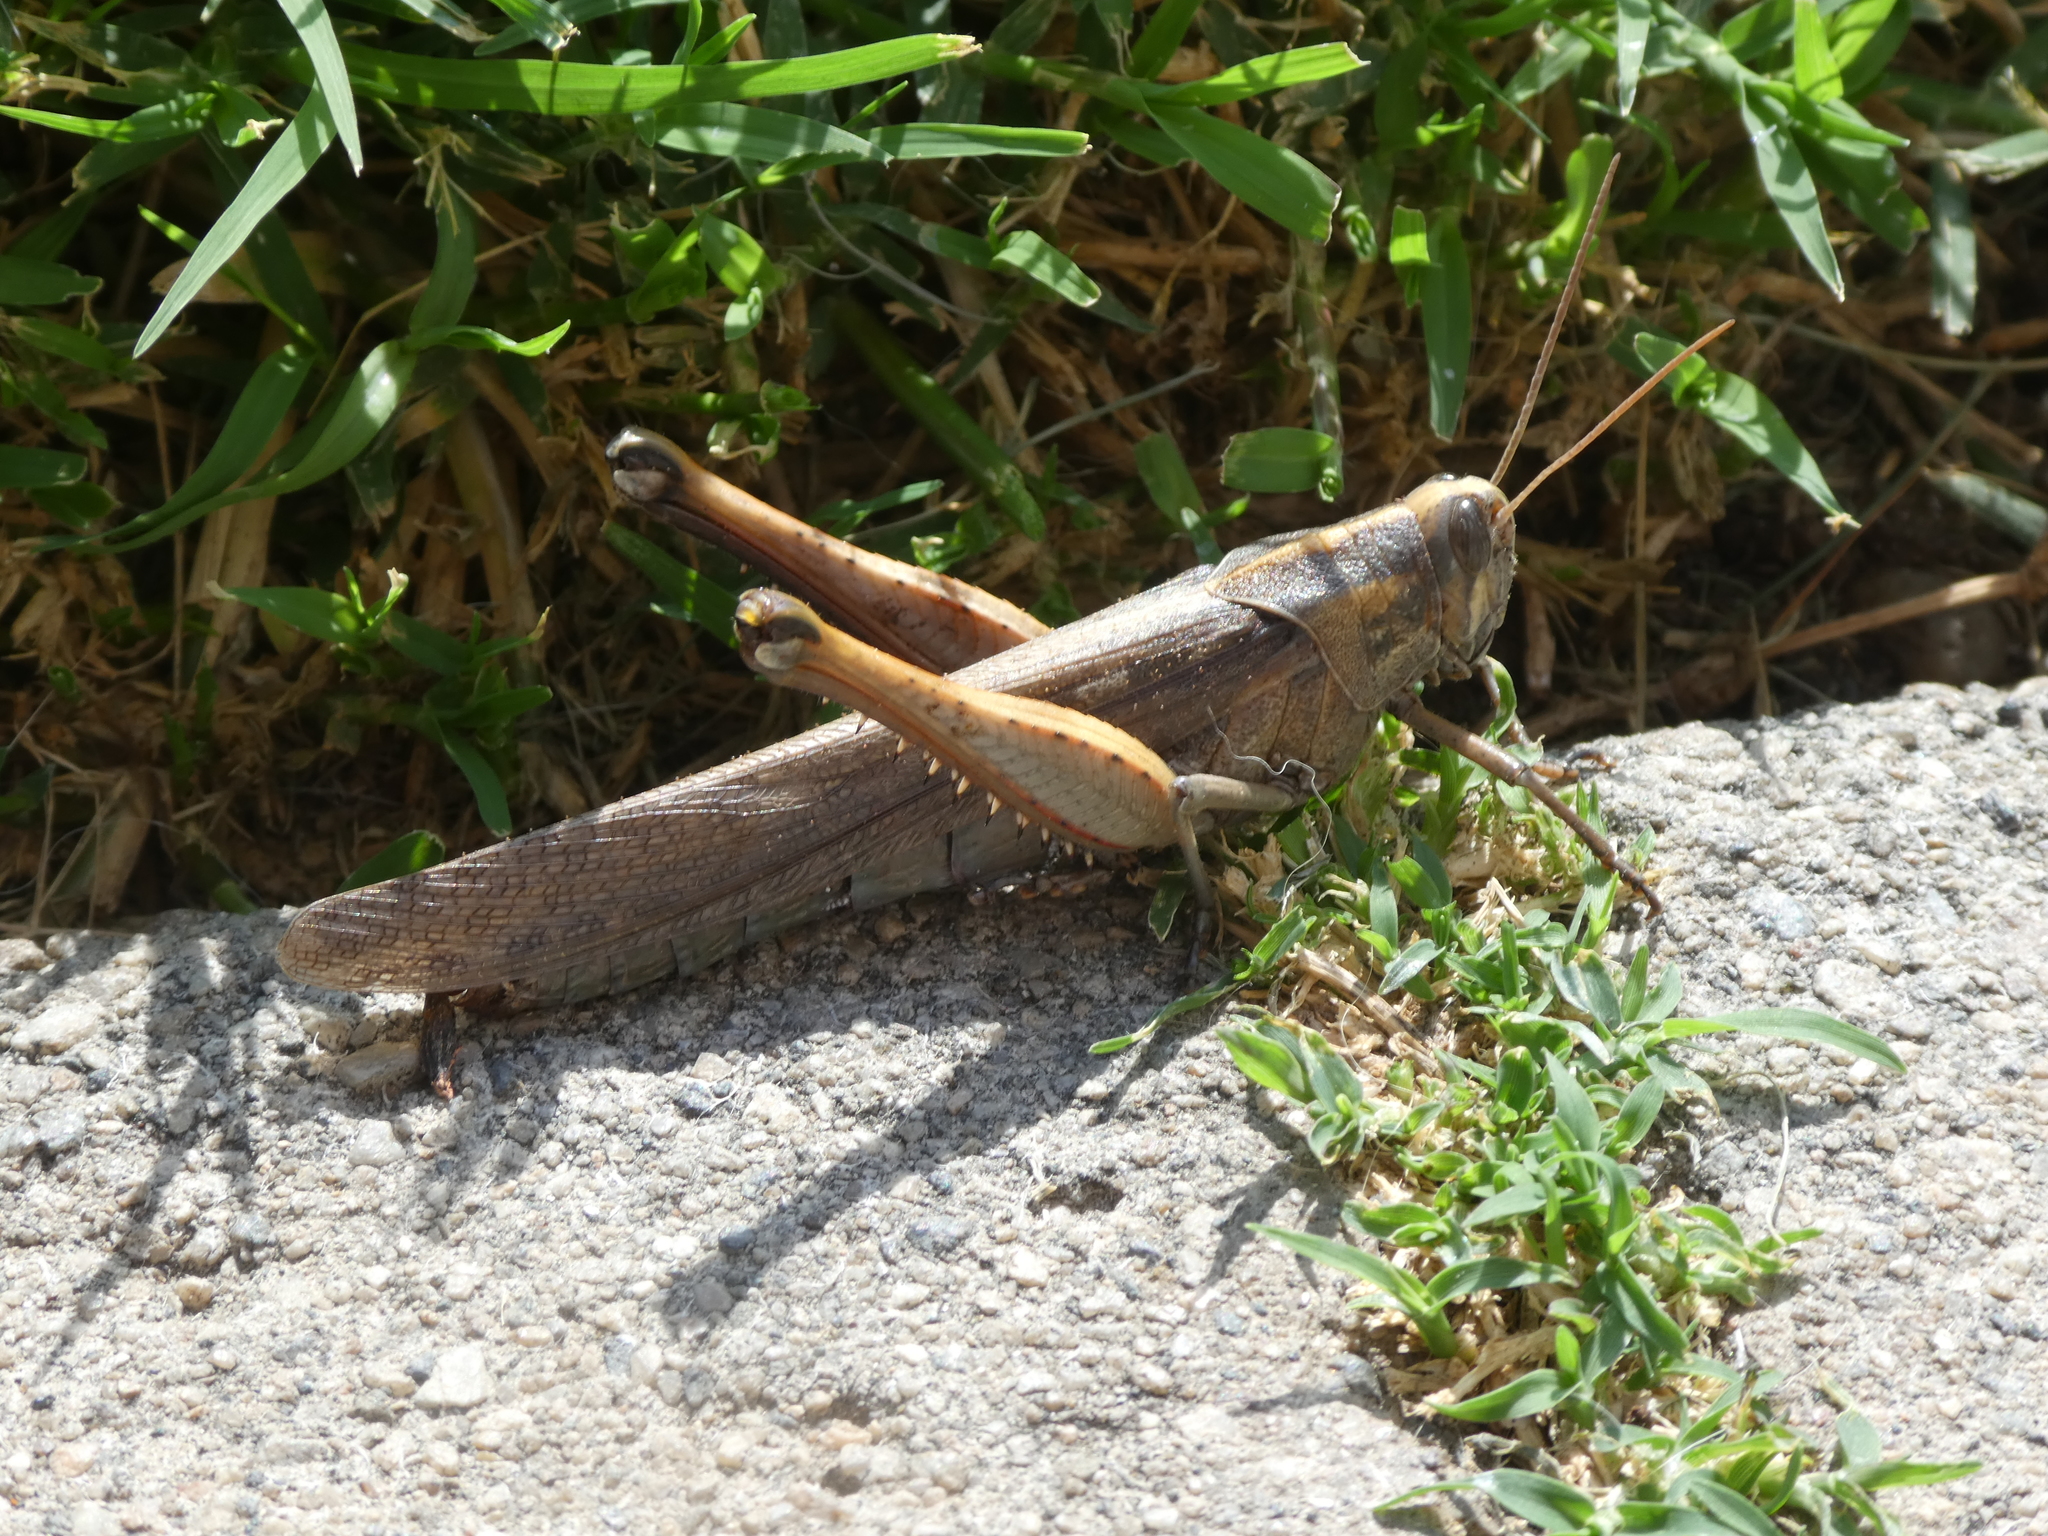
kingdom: Animalia
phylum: Arthropoda
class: Insecta
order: Orthoptera
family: Acrididae
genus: Schistocerca
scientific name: Schistocerca nitens
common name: Vagrant grasshopper
